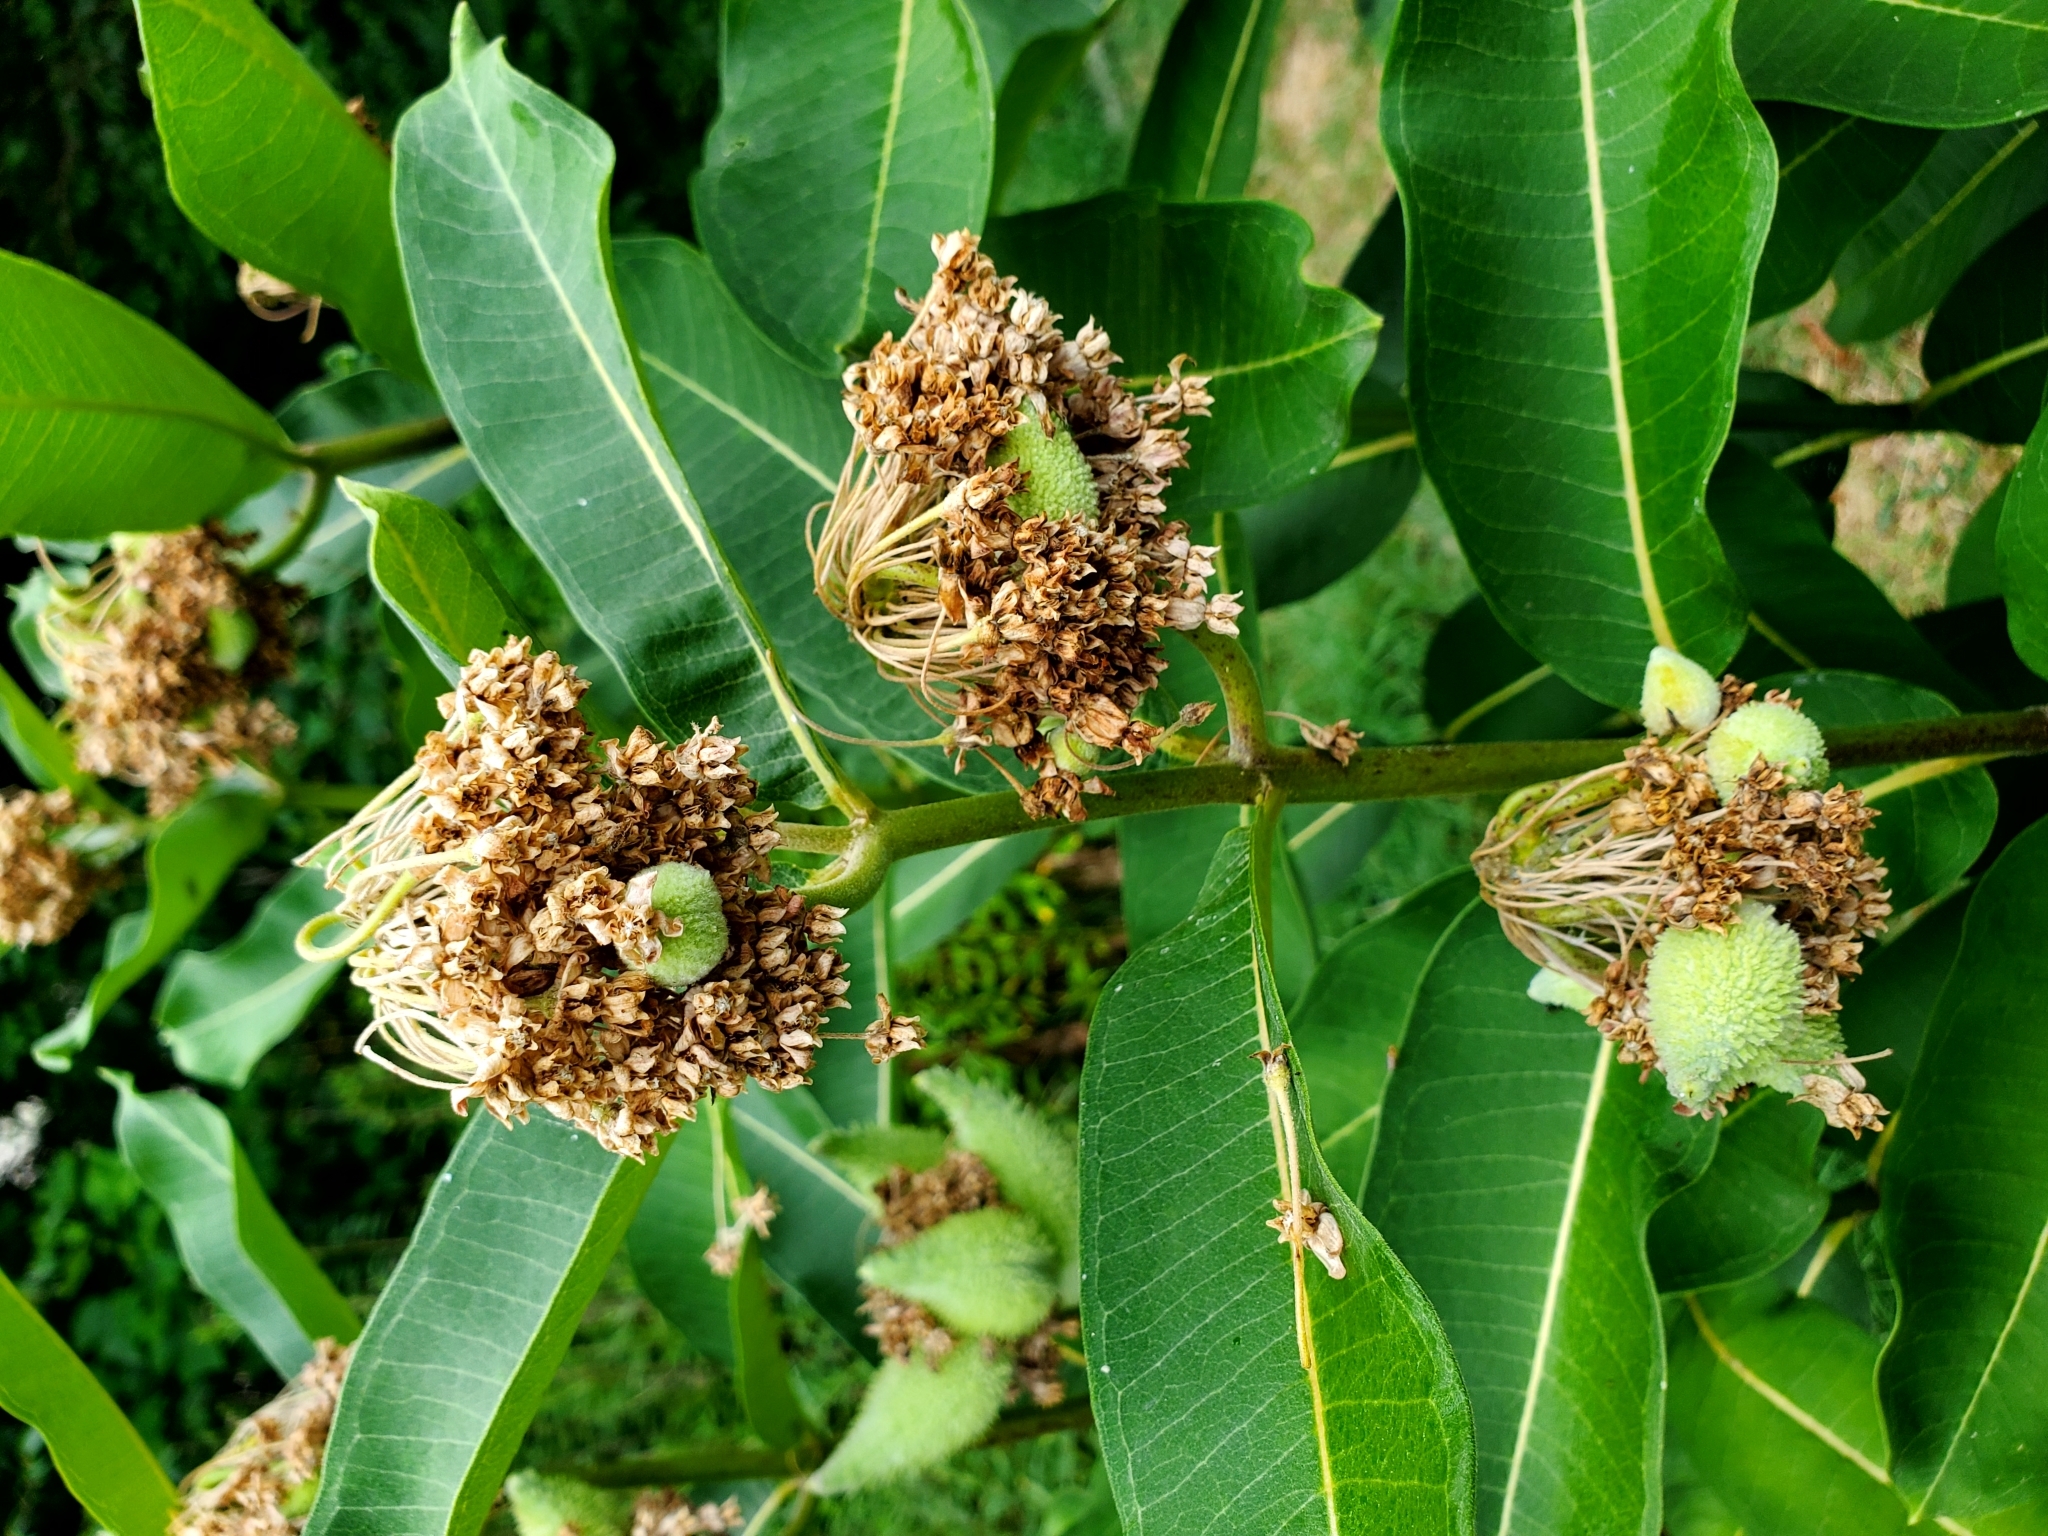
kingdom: Plantae
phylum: Tracheophyta
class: Magnoliopsida
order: Gentianales
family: Apocynaceae
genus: Asclepias
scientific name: Asclepias syriaca
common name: Common milkweed
